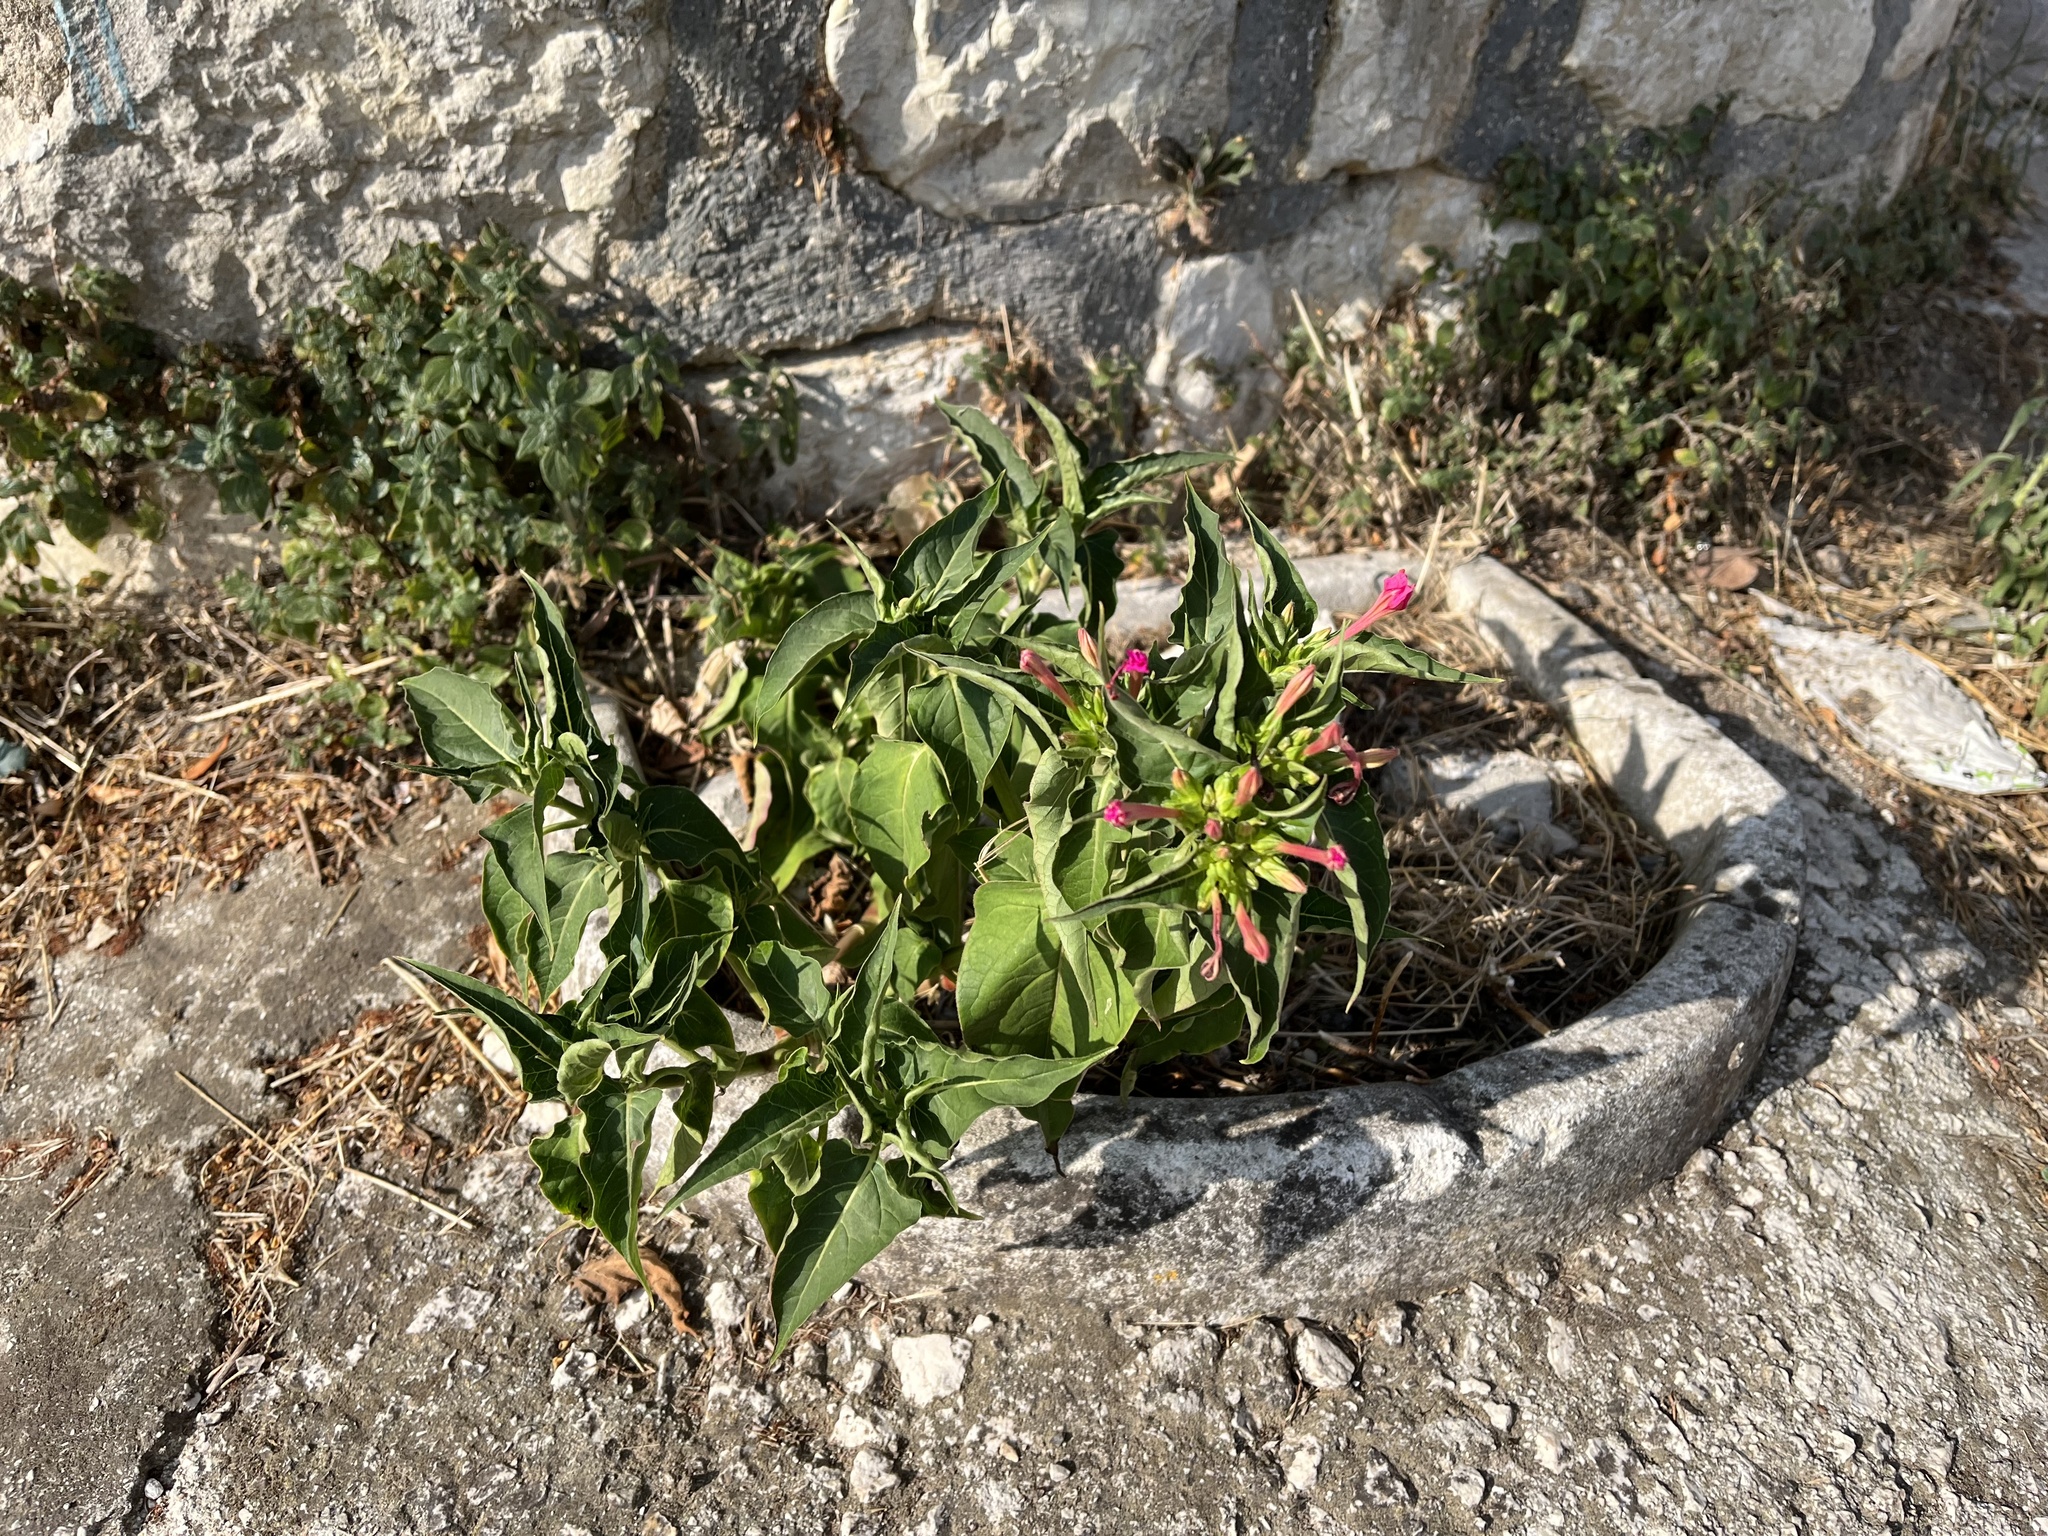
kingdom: Plantae
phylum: Tracheophyta
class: Magnoliopsida
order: Caryophyllales
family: Nyctaginaceae
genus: Mirabilis
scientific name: Mirabilis jalapa
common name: Marvel-of-peru
